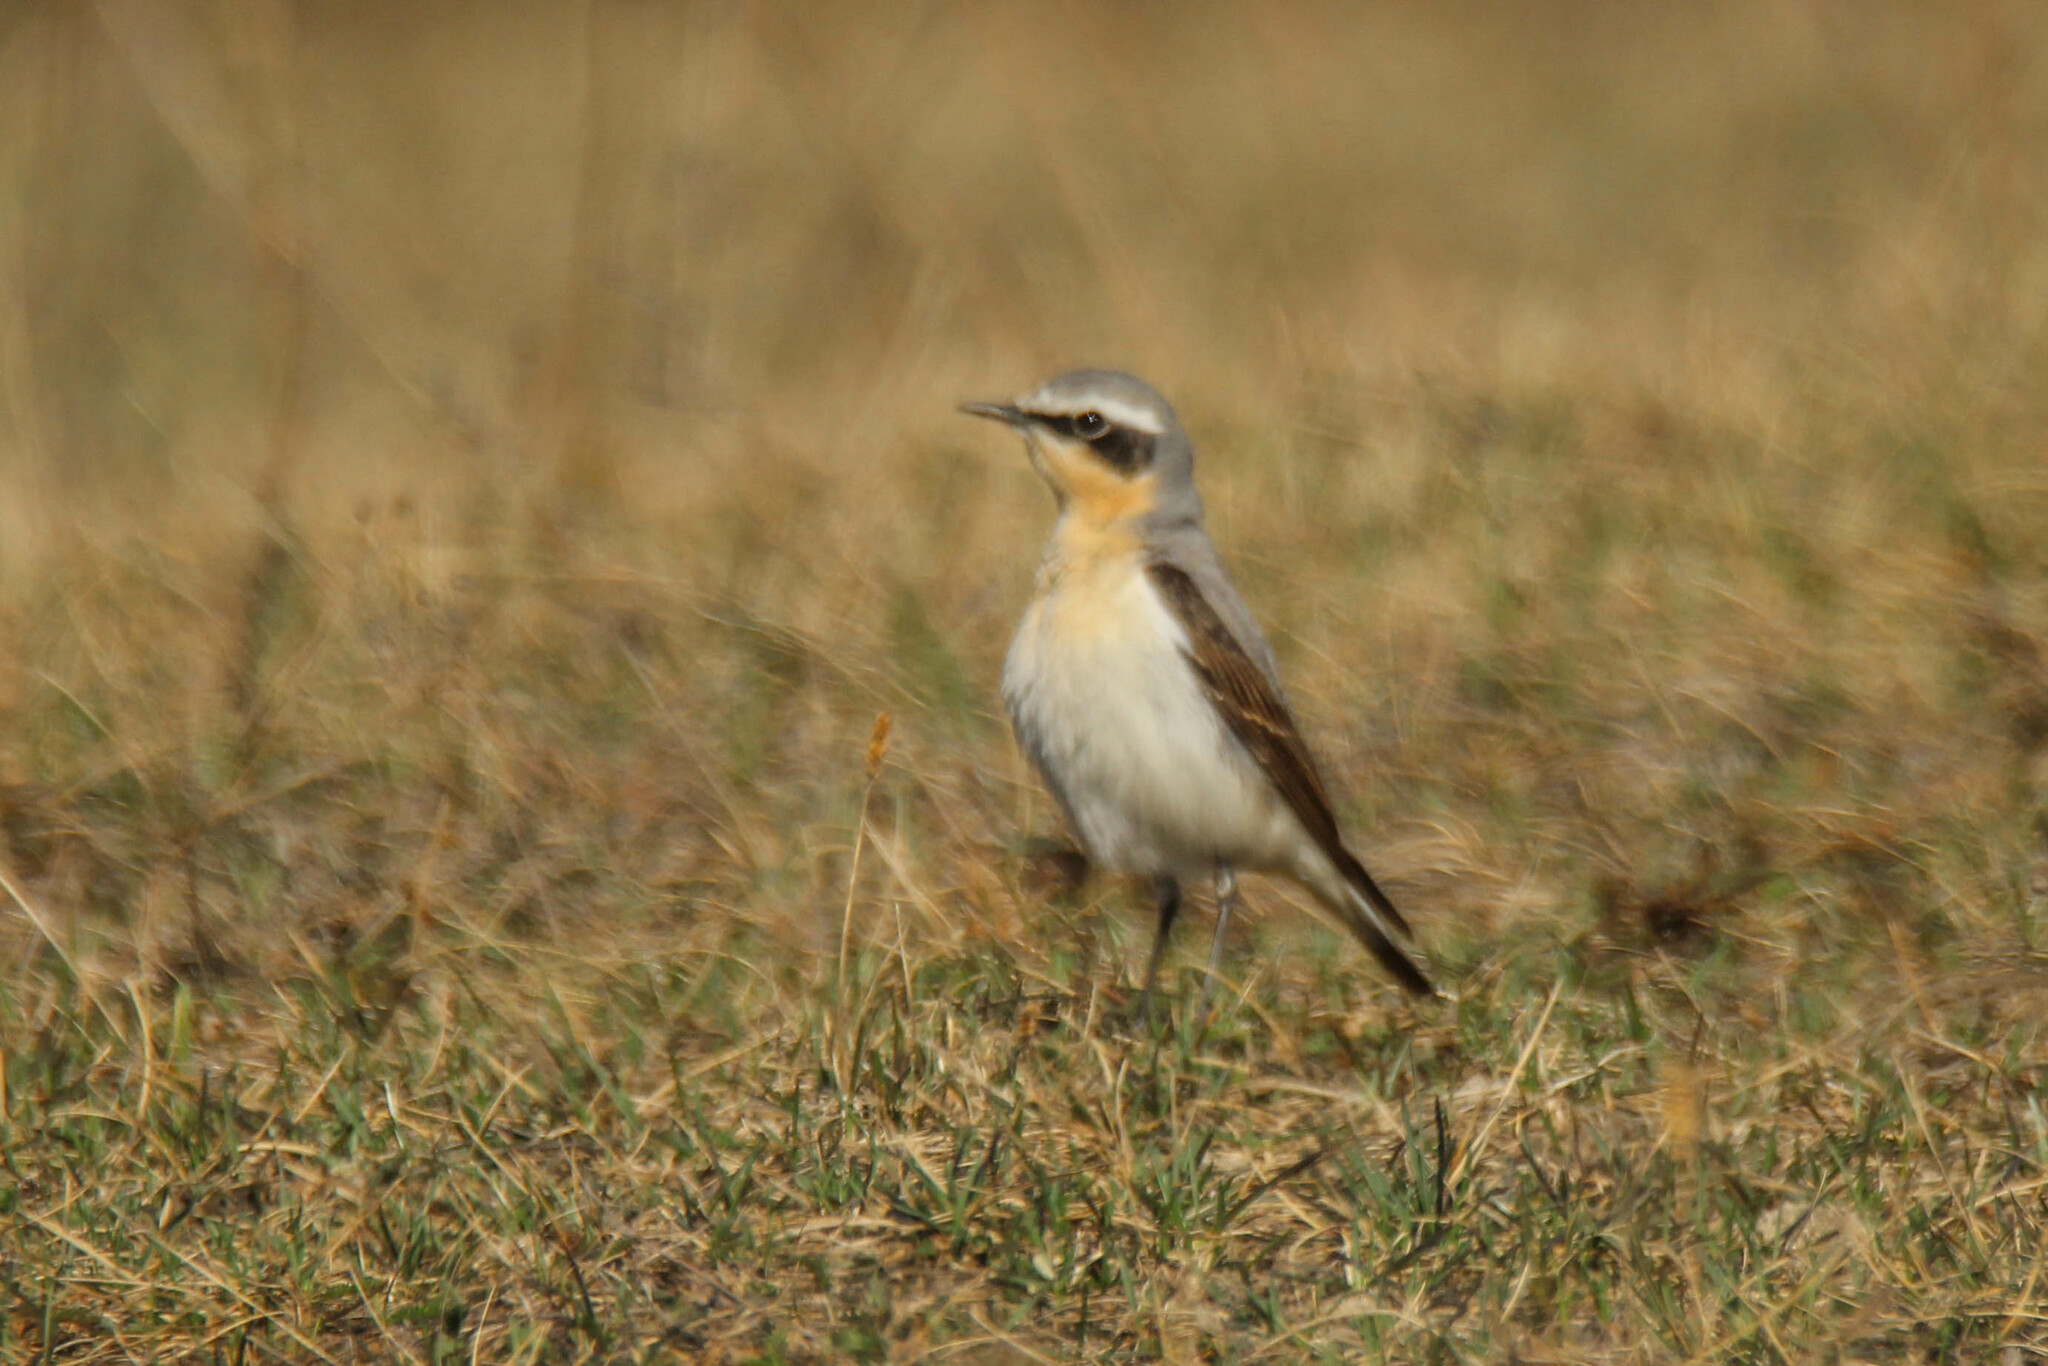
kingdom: Animalia
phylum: Chordata
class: Aves
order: Passeriformes
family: Muscicapidae
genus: Oenanthe
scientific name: Oenanthe oenanthe
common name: Northern wheatear
